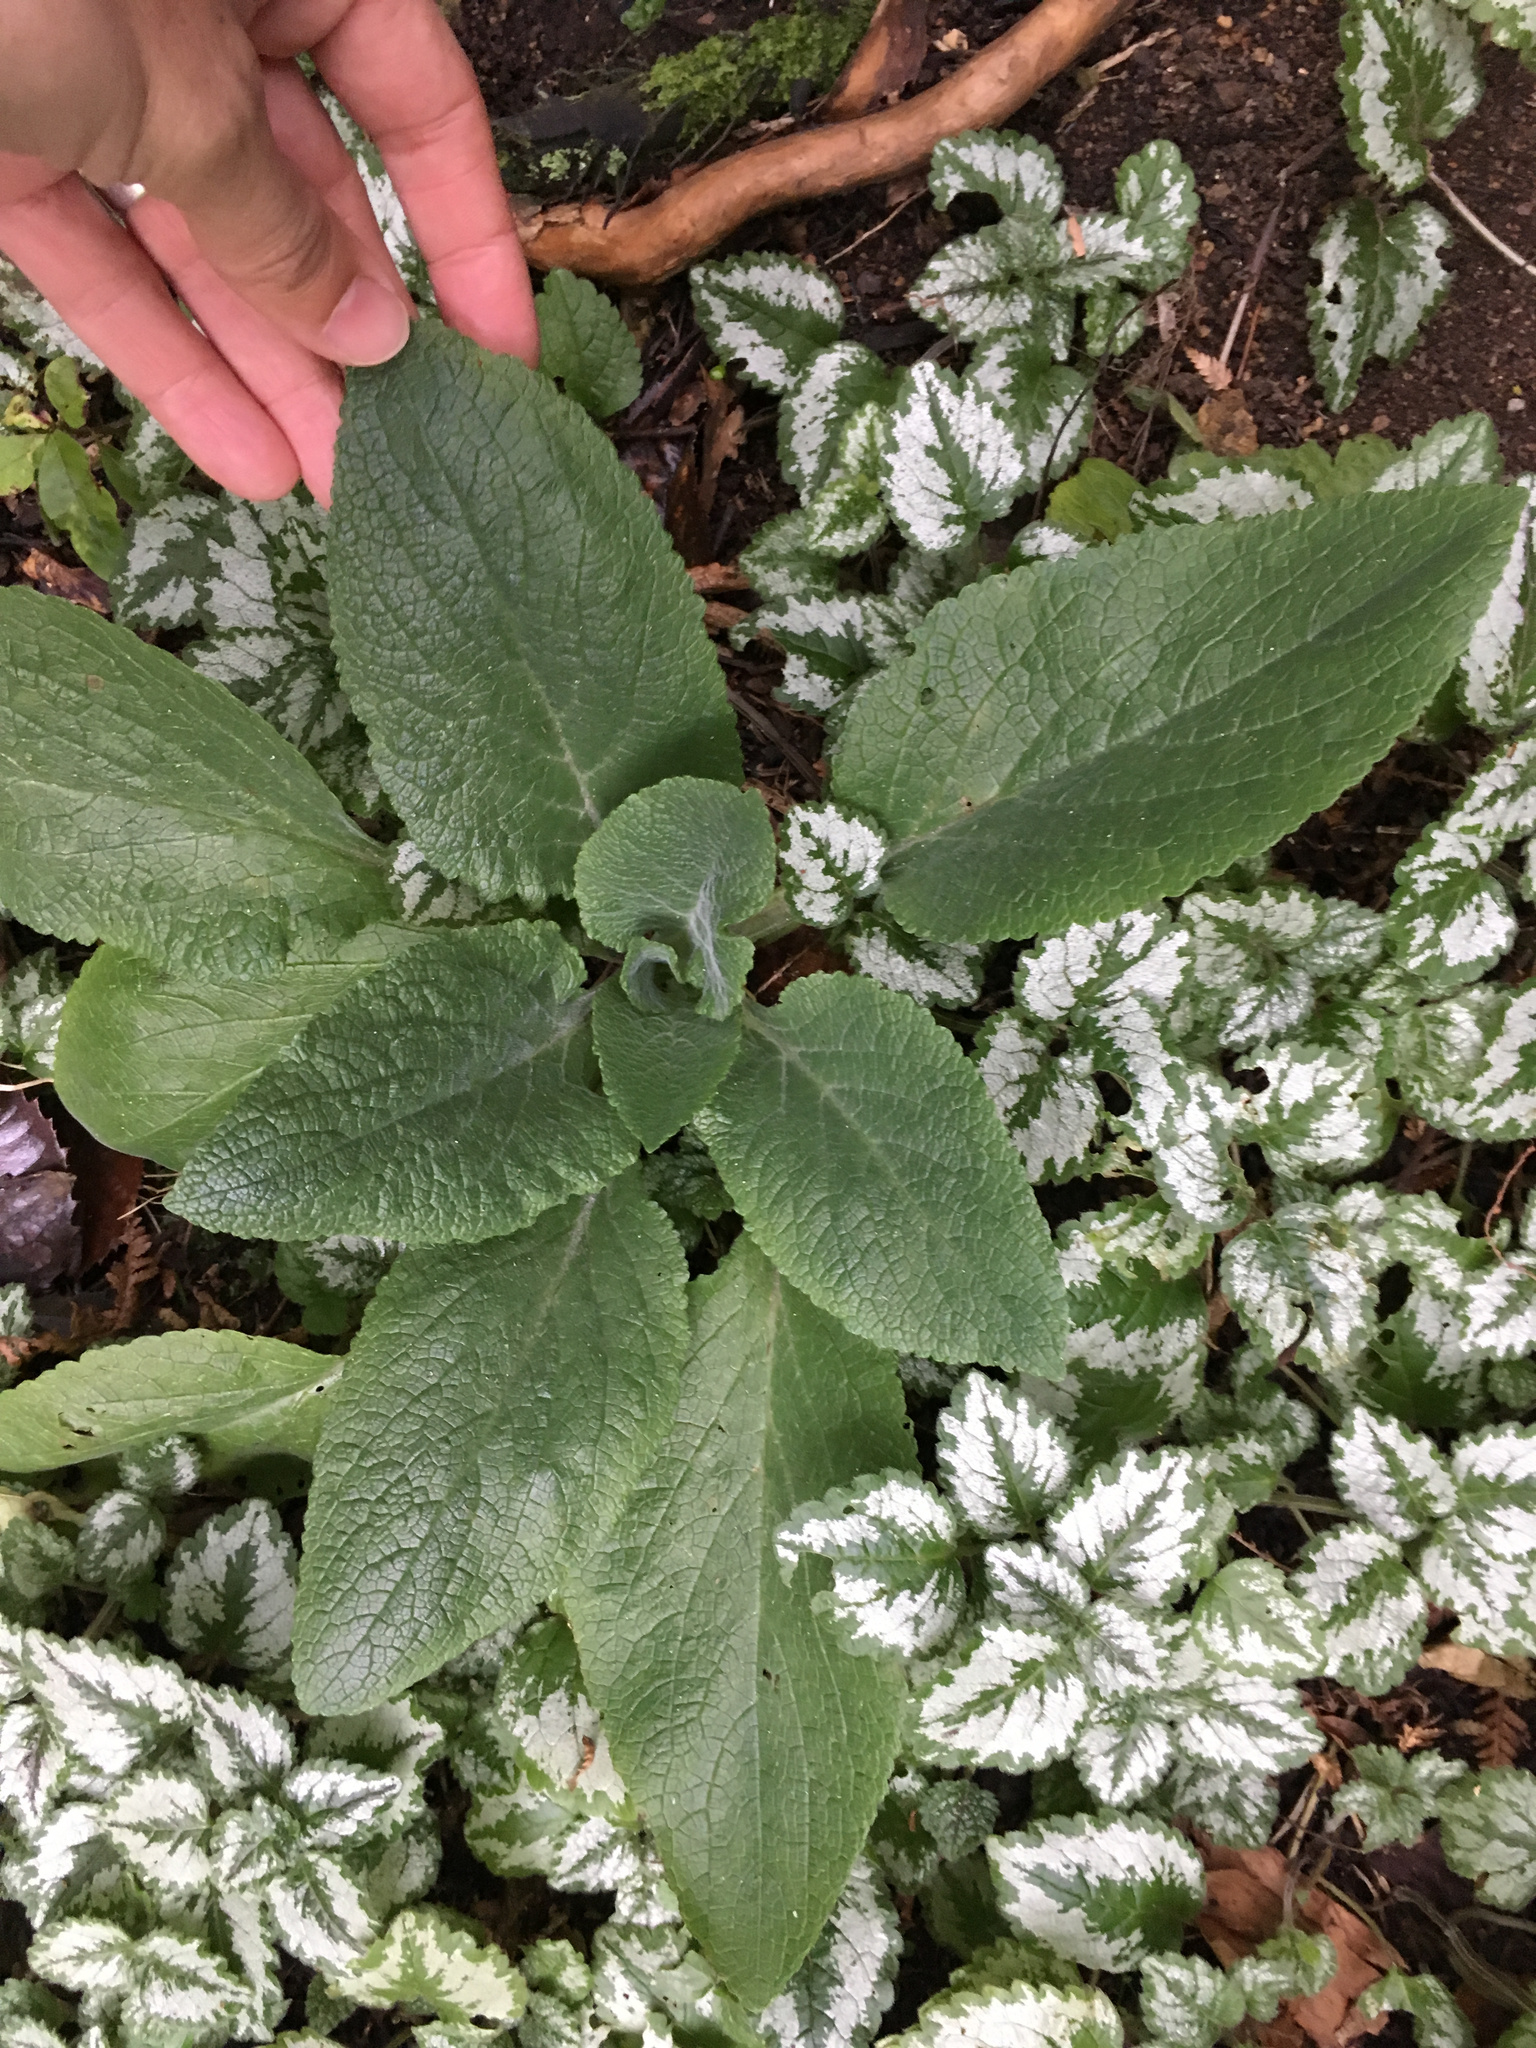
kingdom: Plantae
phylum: Tracheophyta
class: Magnoliopsida
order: Lamiales
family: Plantaginaceae
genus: Digitalis
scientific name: Digitalis purpurea
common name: Foxglove
